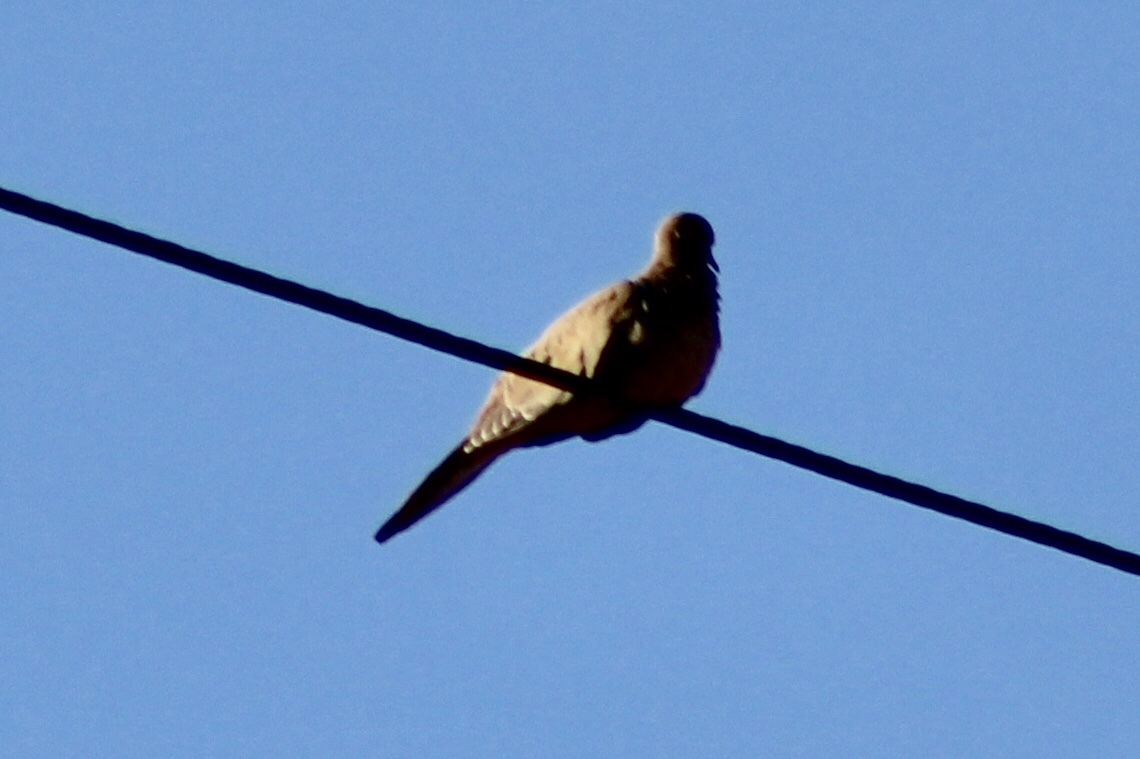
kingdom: Animalia
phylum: Chordata
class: Aves
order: Columbiformes
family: Columbidae
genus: Zenaida
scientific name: Zenaida macroura
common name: Mourning dove
